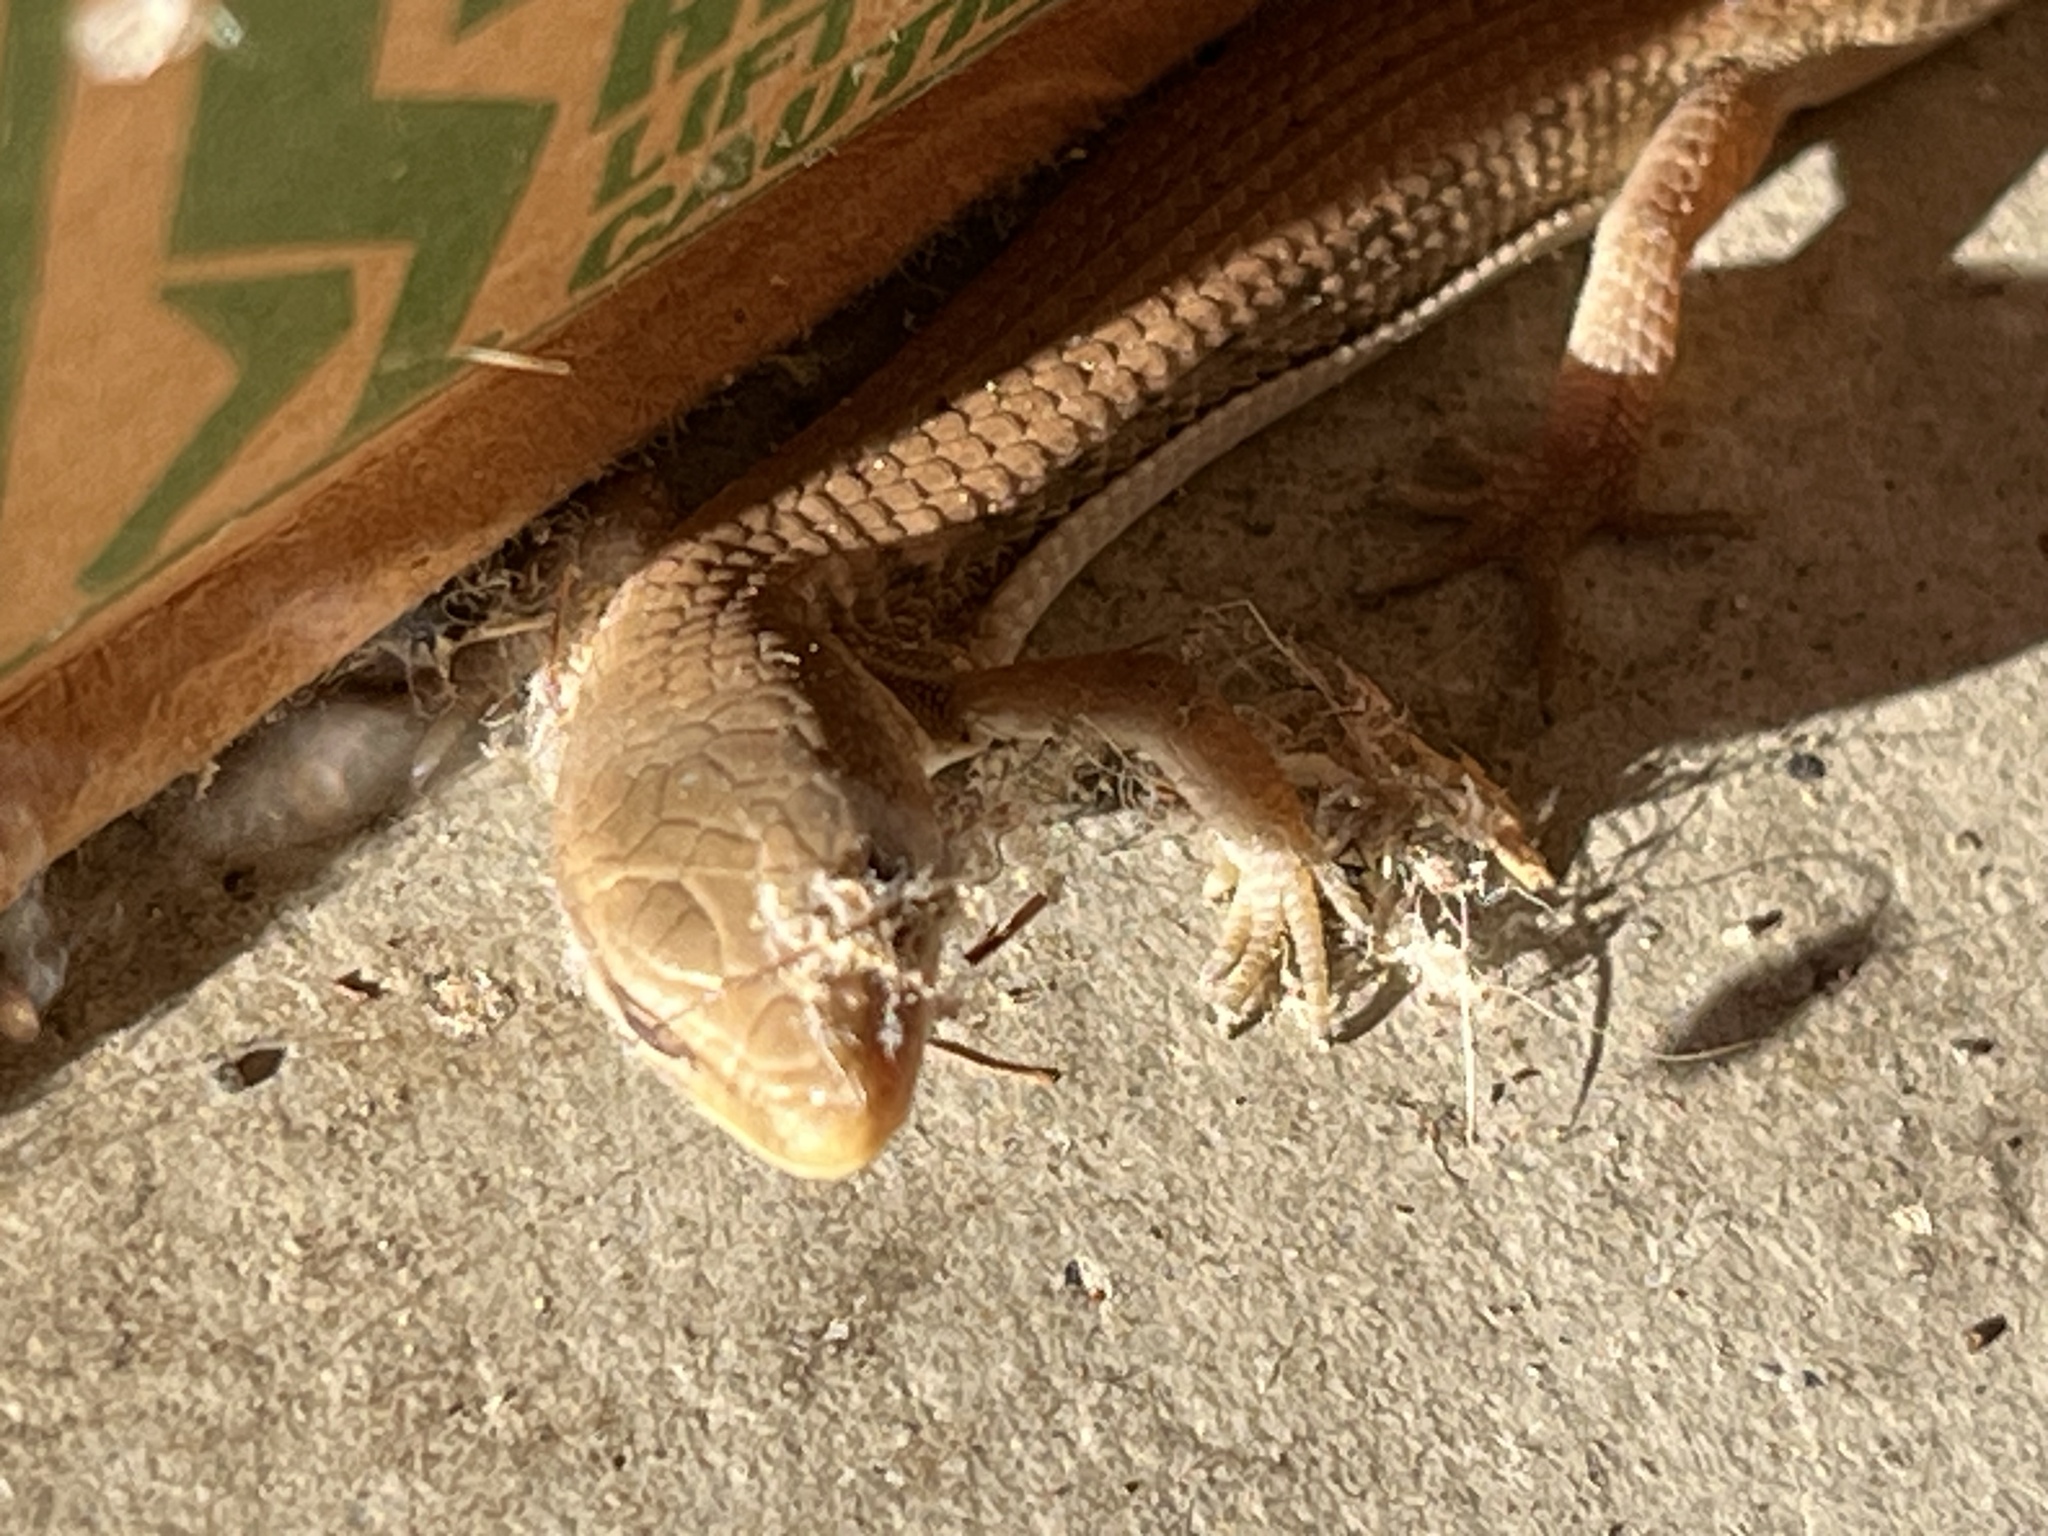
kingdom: Animalia
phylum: Chordata
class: Squamata
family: Anguidae
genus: Elgaria
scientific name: Elgaria multicarinata
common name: Southern alligator lizard
